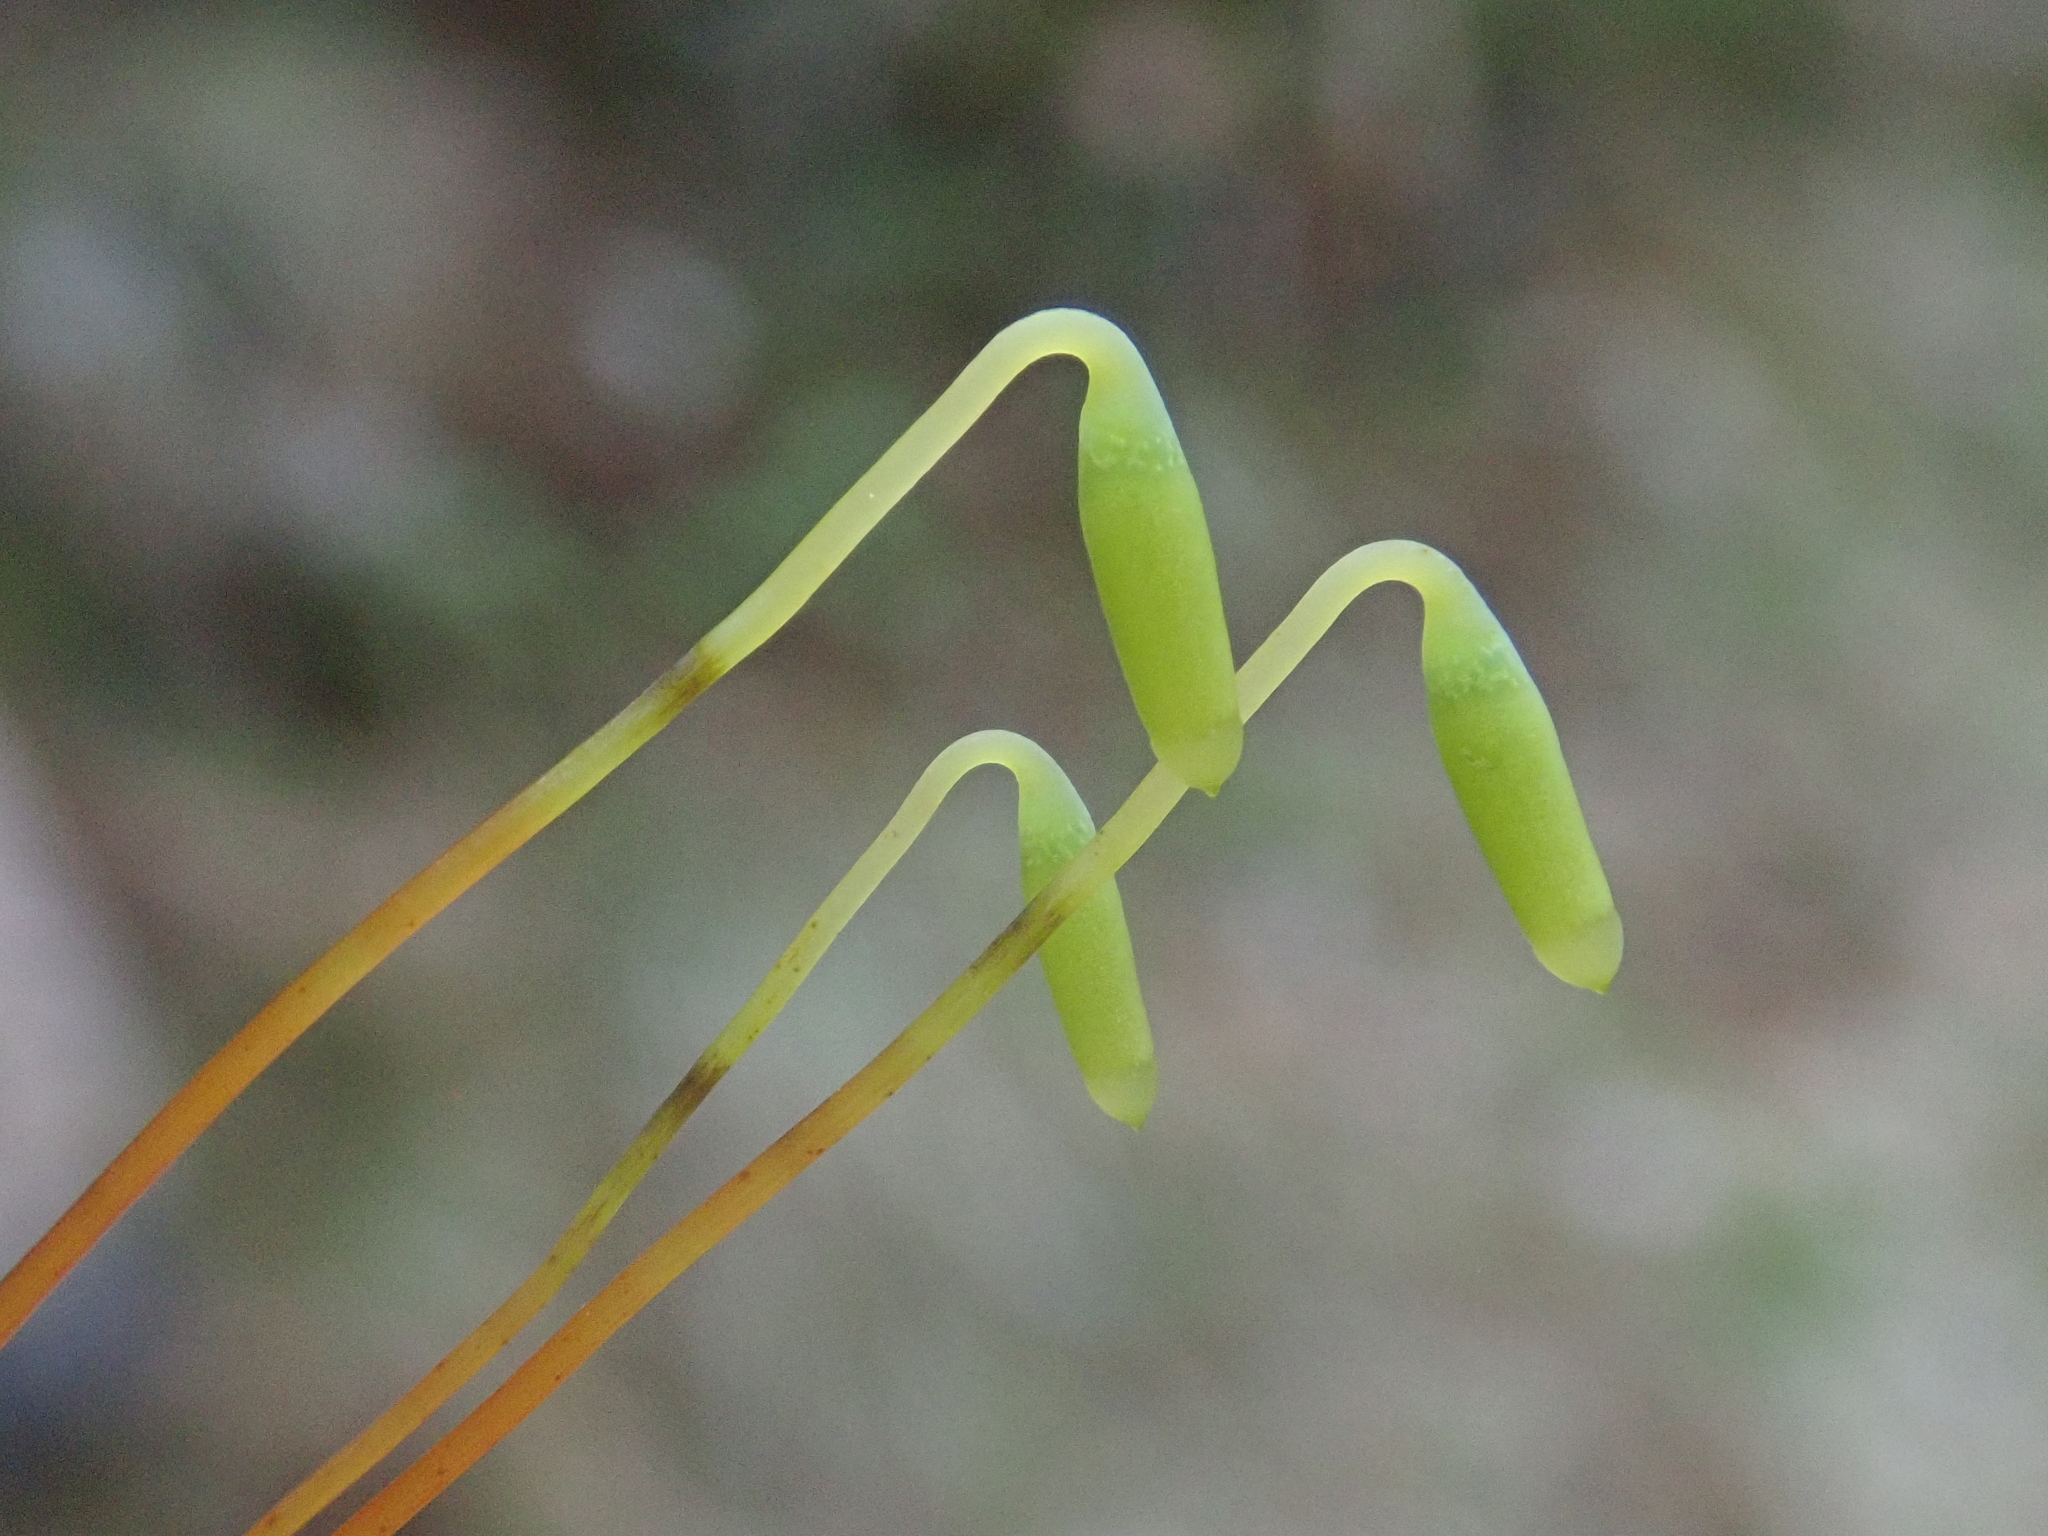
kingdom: Plantae
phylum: Bryophyta
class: Bryopsida
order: Bryales
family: Mniaceae
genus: Plagiomnium
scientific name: Plagiomnium affine
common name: Many-fruited thyme-moss
